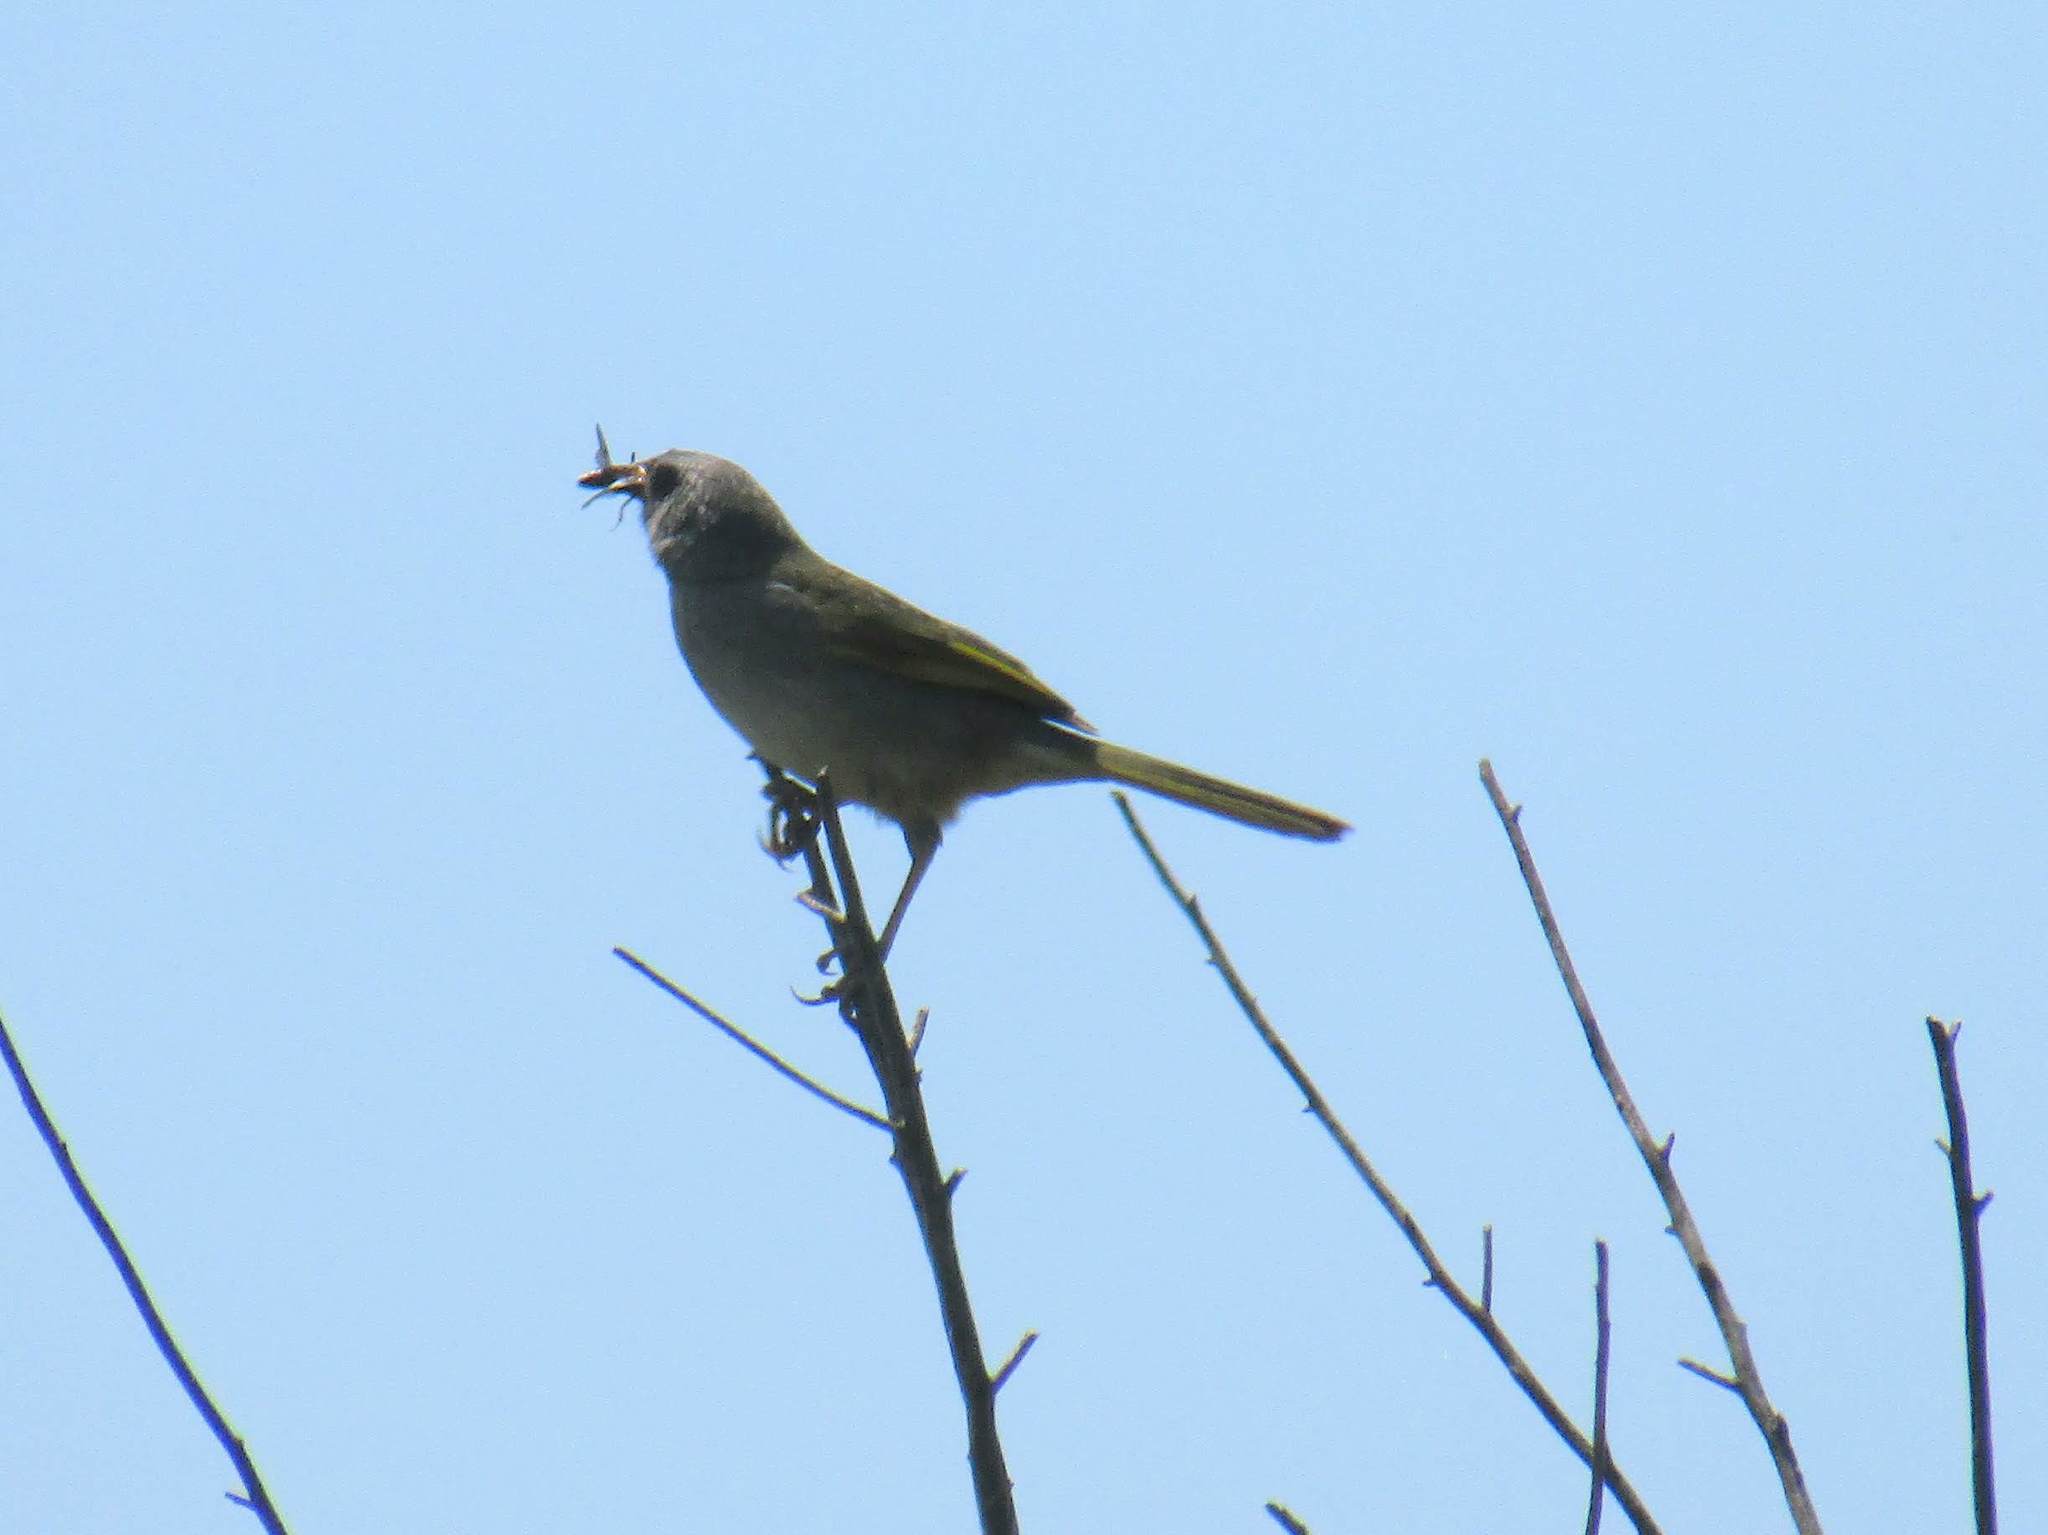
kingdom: Animalia
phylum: Chordata
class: Aves
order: Passeriformes
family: Thraupidae
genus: Embernagra
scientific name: Embernagra platensis
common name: Pampa finch
